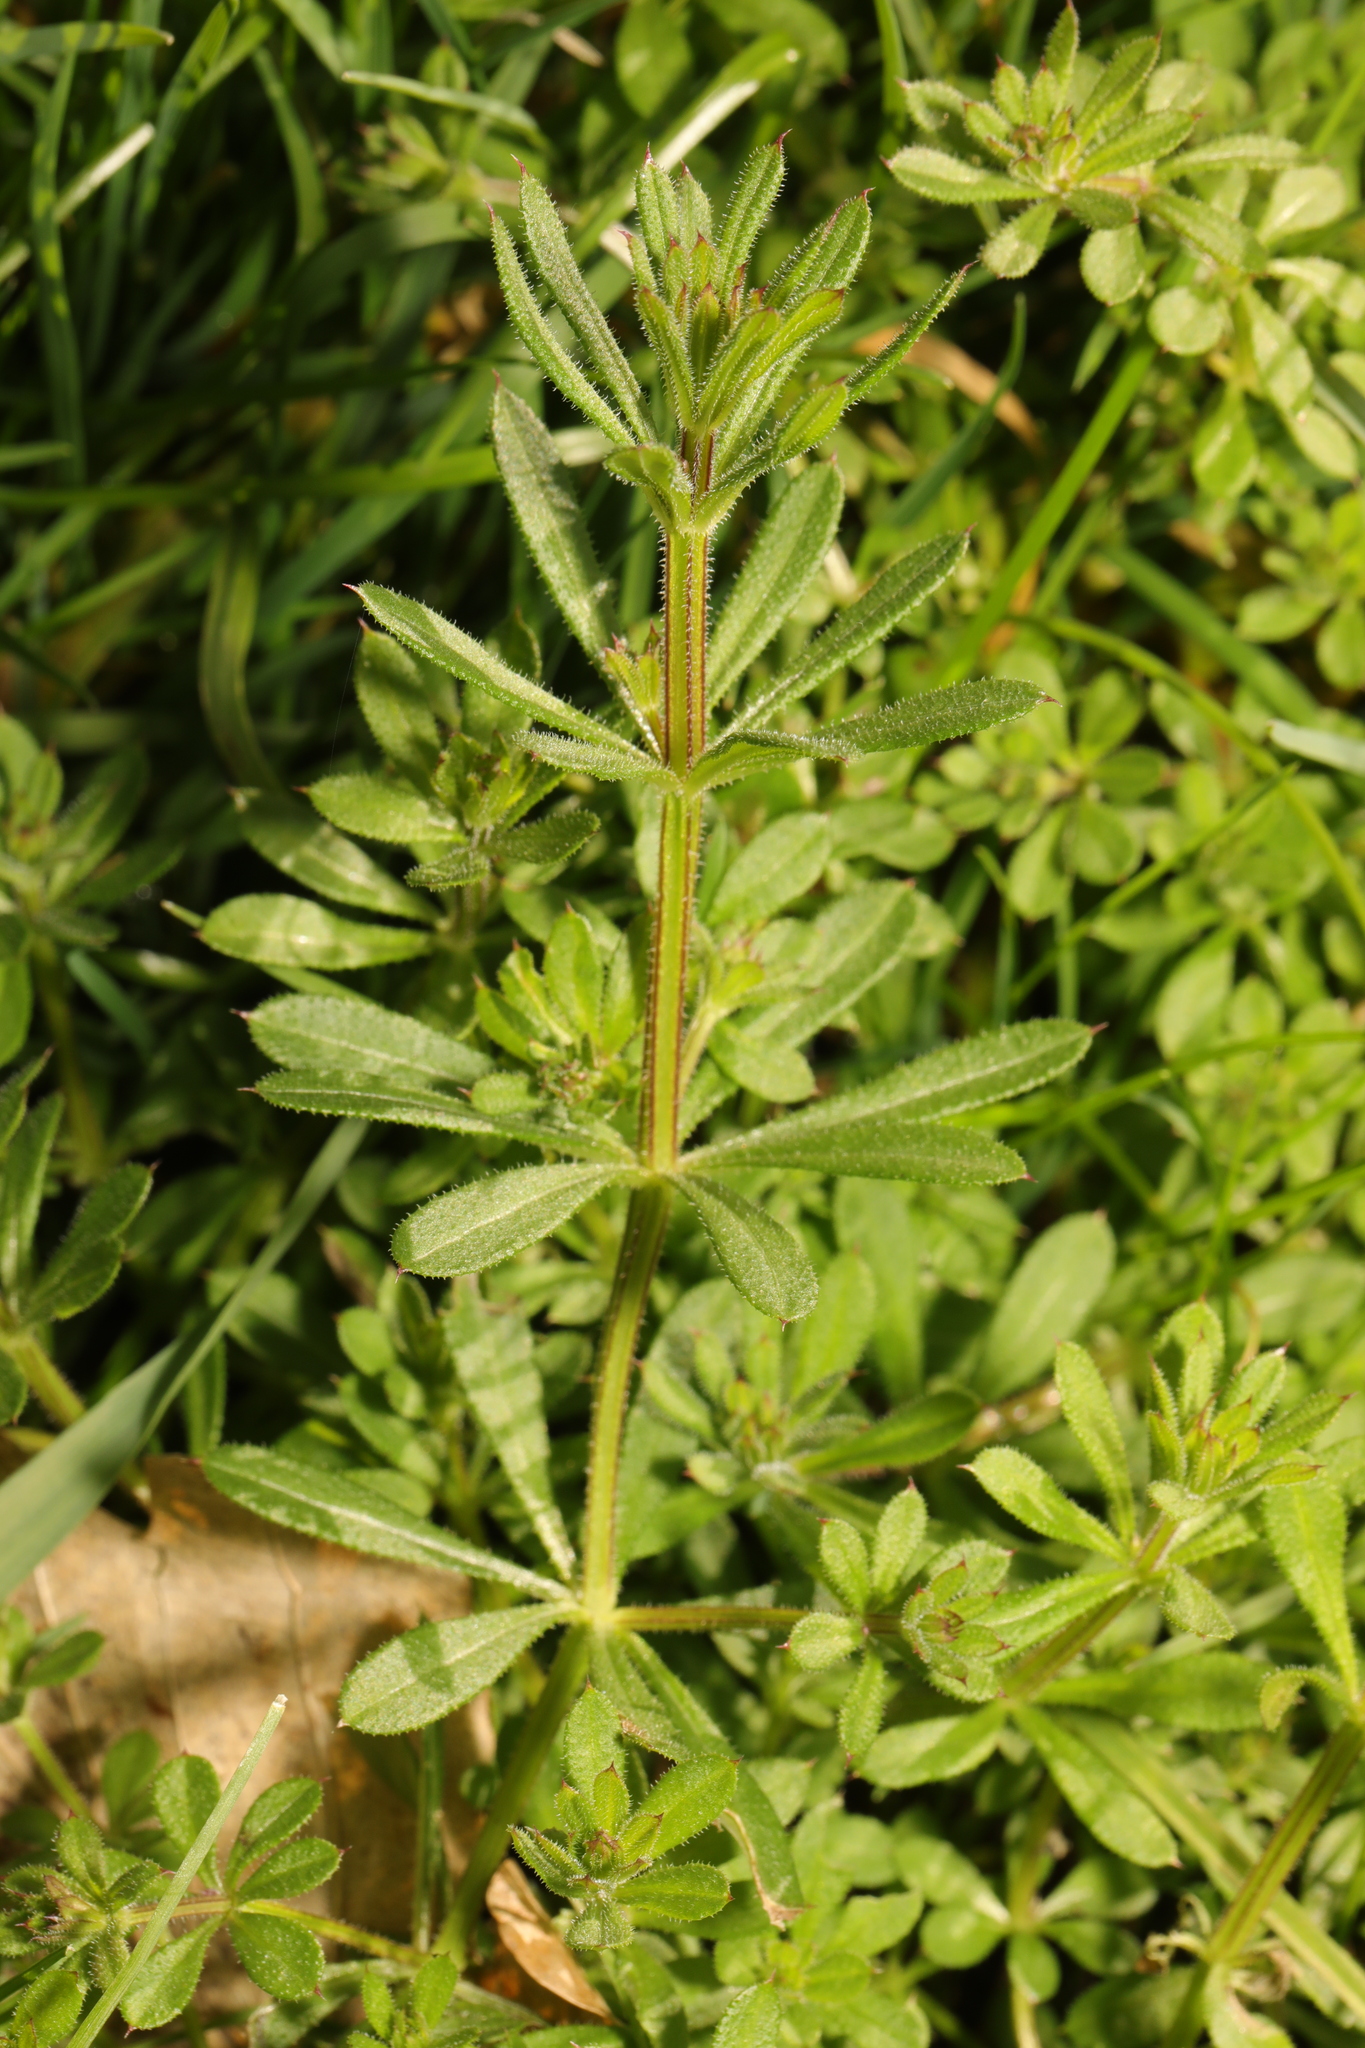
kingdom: Plantae
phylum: Tracheophyta
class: Magnoliopsida
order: Gentianales
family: Rubiaceae
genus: Galium
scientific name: Galium aparine
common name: Cleavers
